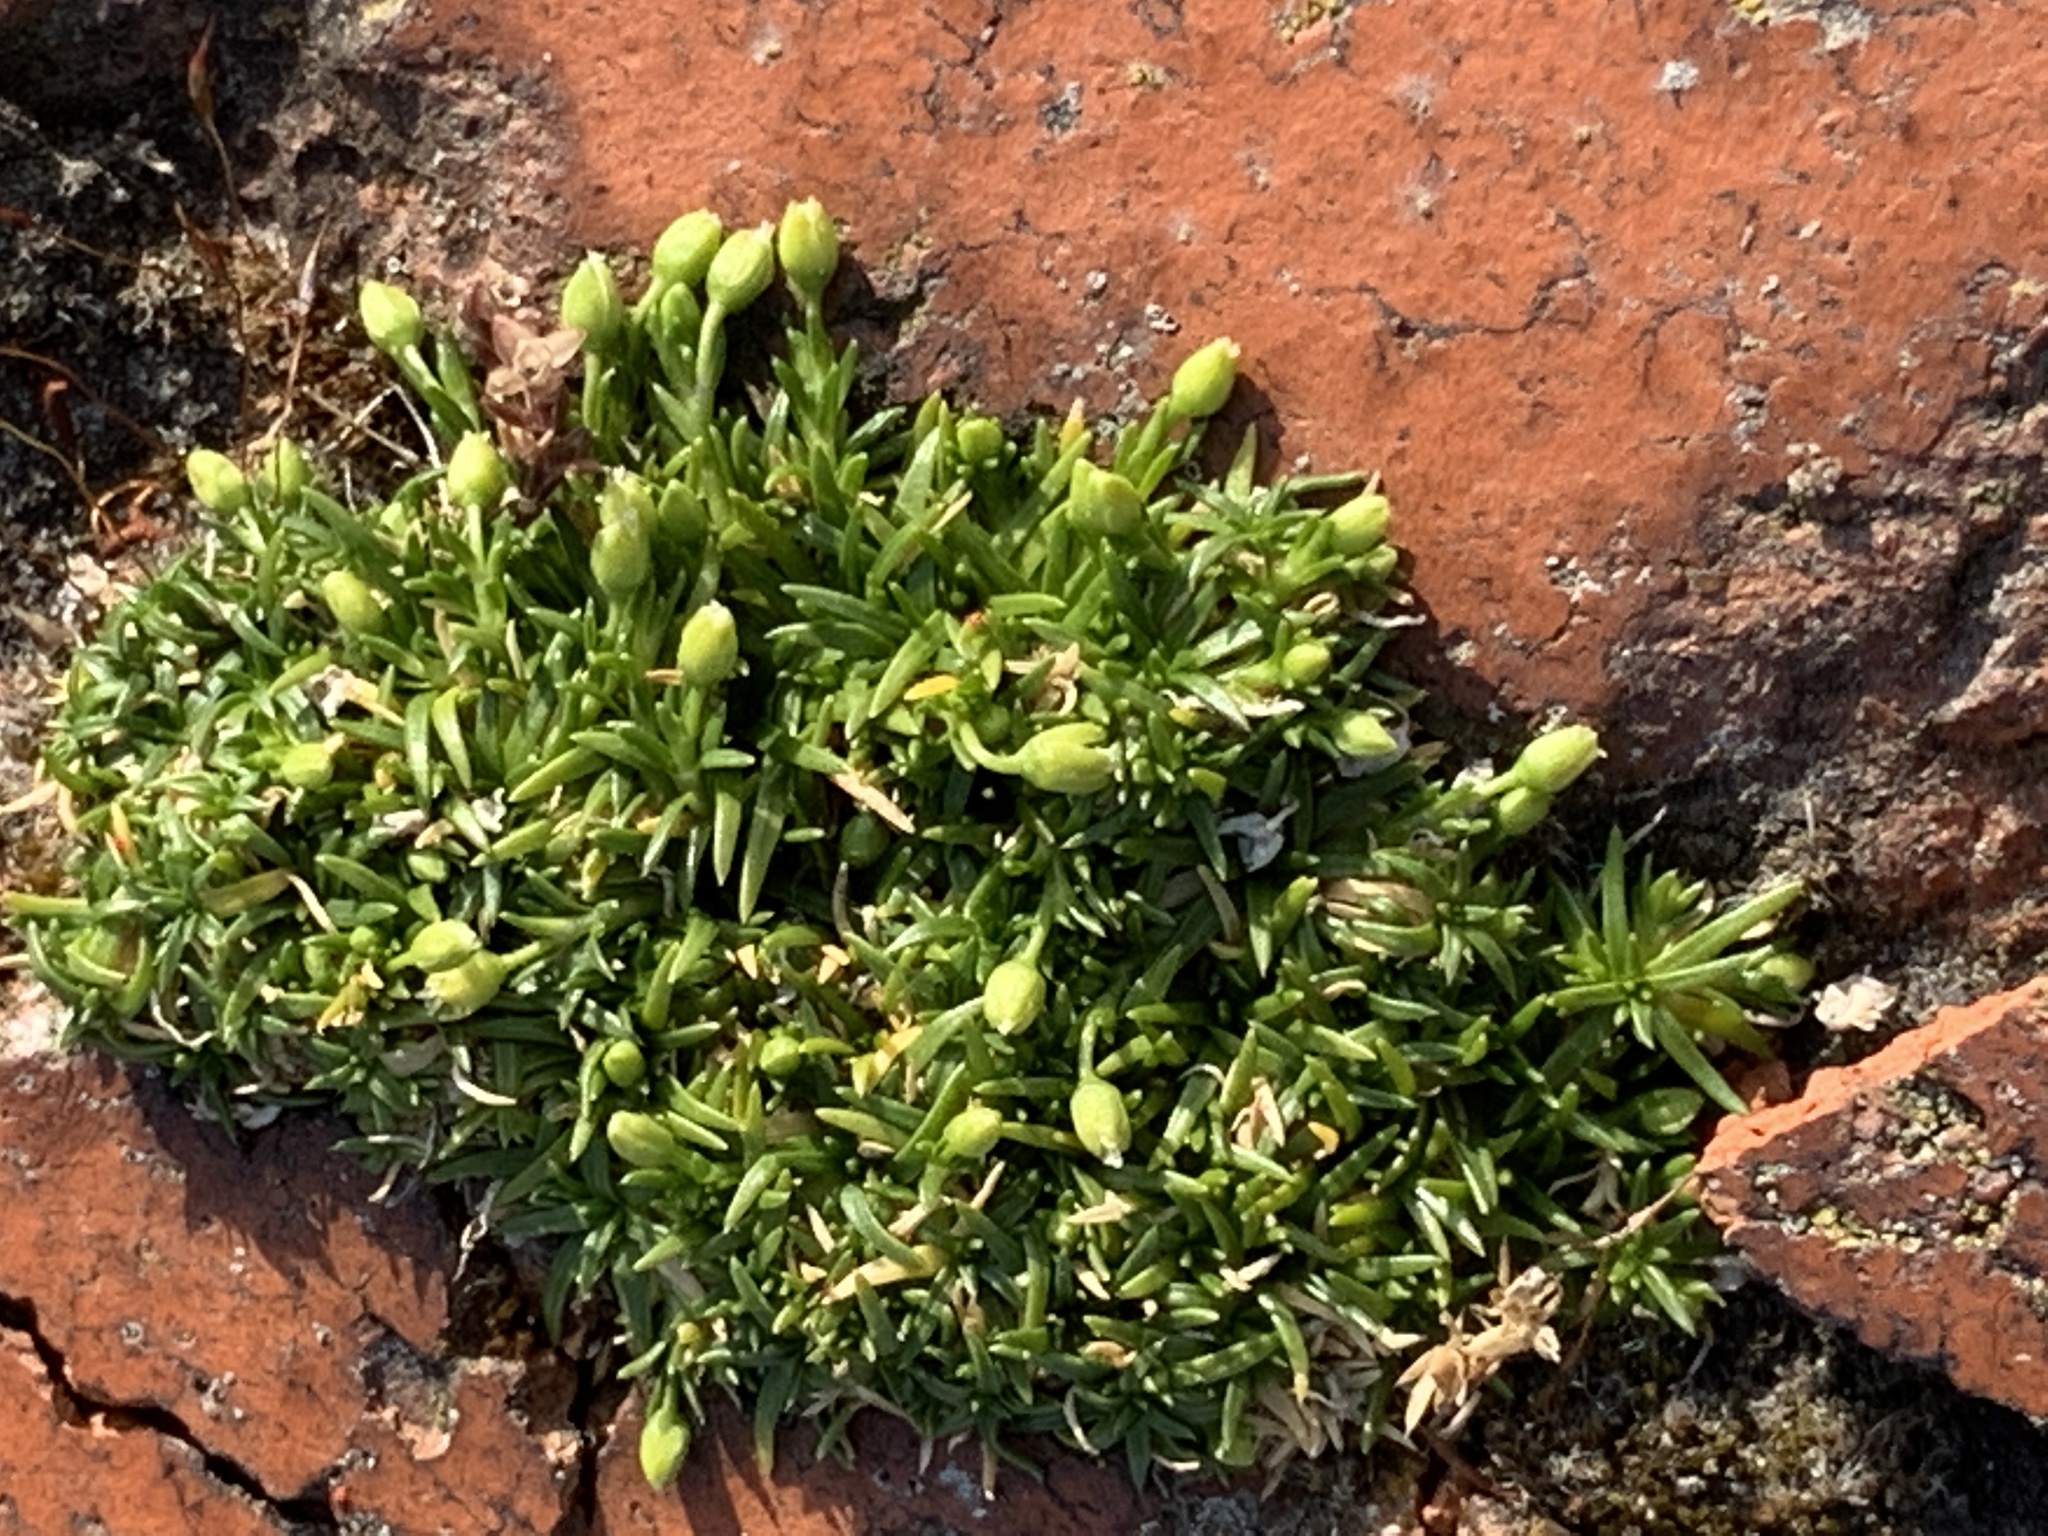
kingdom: Plantae
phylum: Tracheophyta
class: Magnoliopsida
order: Caryophyllales
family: Caryophyllaceae
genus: Sagina
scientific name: Sagina procumbens
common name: Procumbent pearlwort
